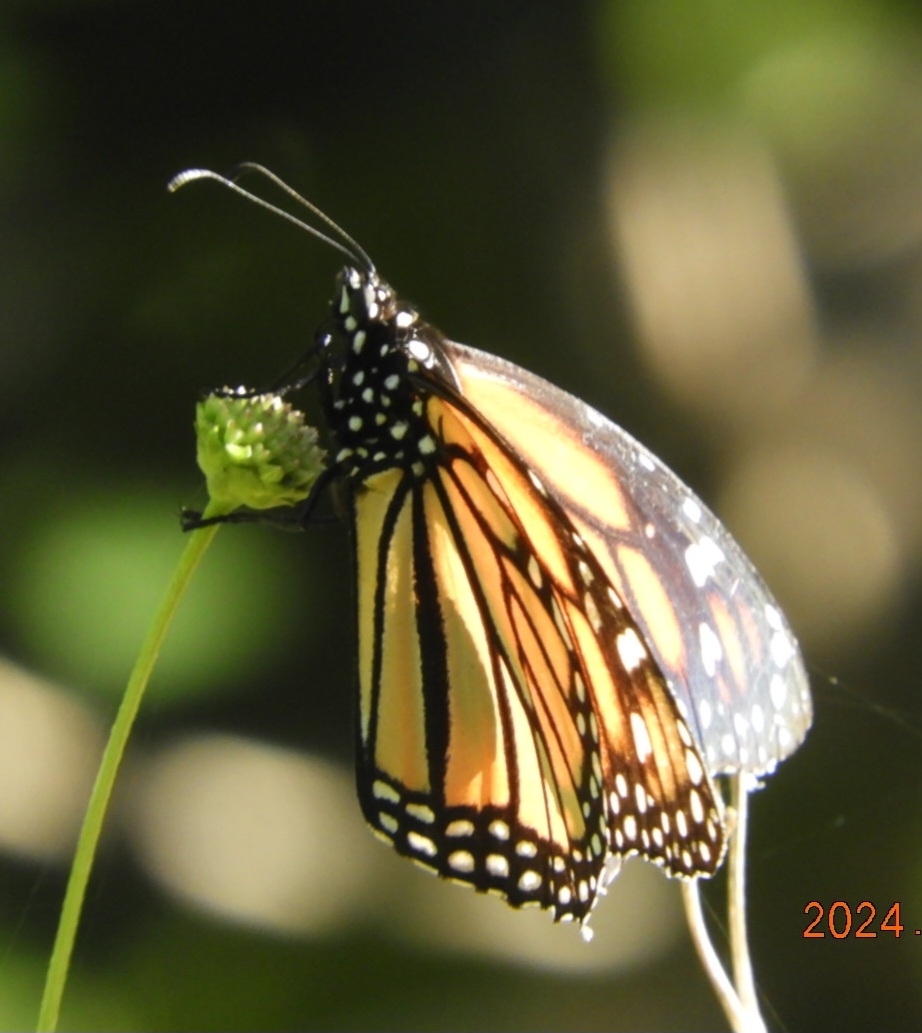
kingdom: Animalia
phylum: Arthropoda
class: Insecta
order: Lepidoptera
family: Nymphalidae
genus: Danaus
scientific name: Danaus plexippus
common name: Monarch
